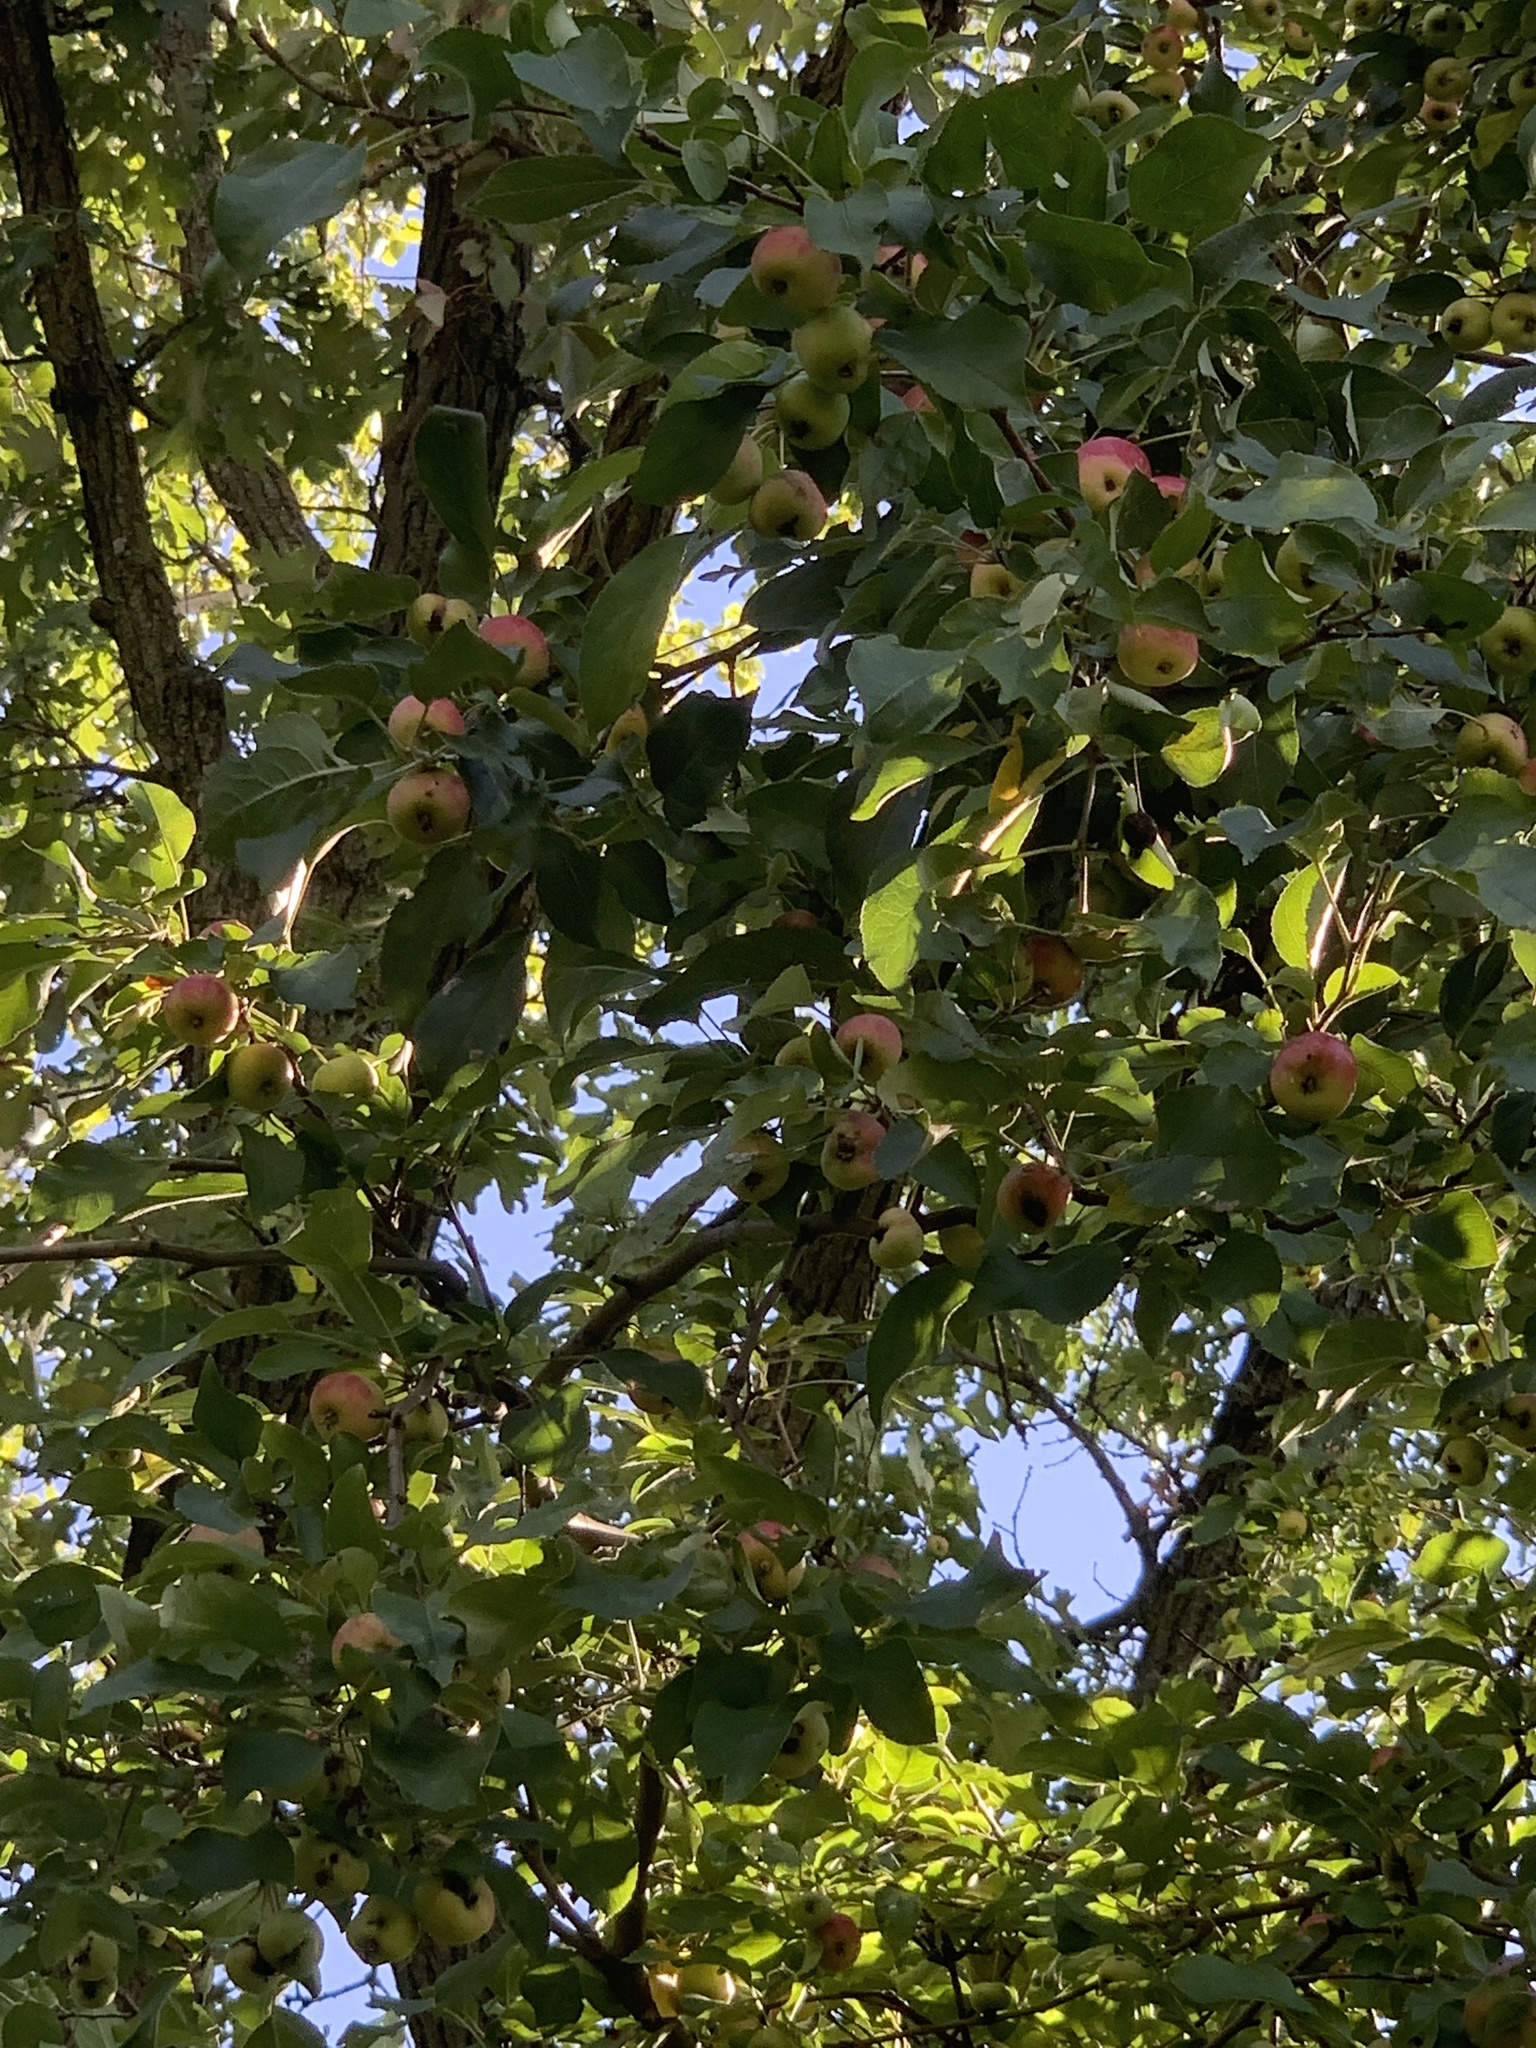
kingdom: Plantae
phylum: Tracheophyta
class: Magnoliopsida
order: Rosales
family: Rosaceae
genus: Malus
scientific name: Malus domestica
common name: Apple
